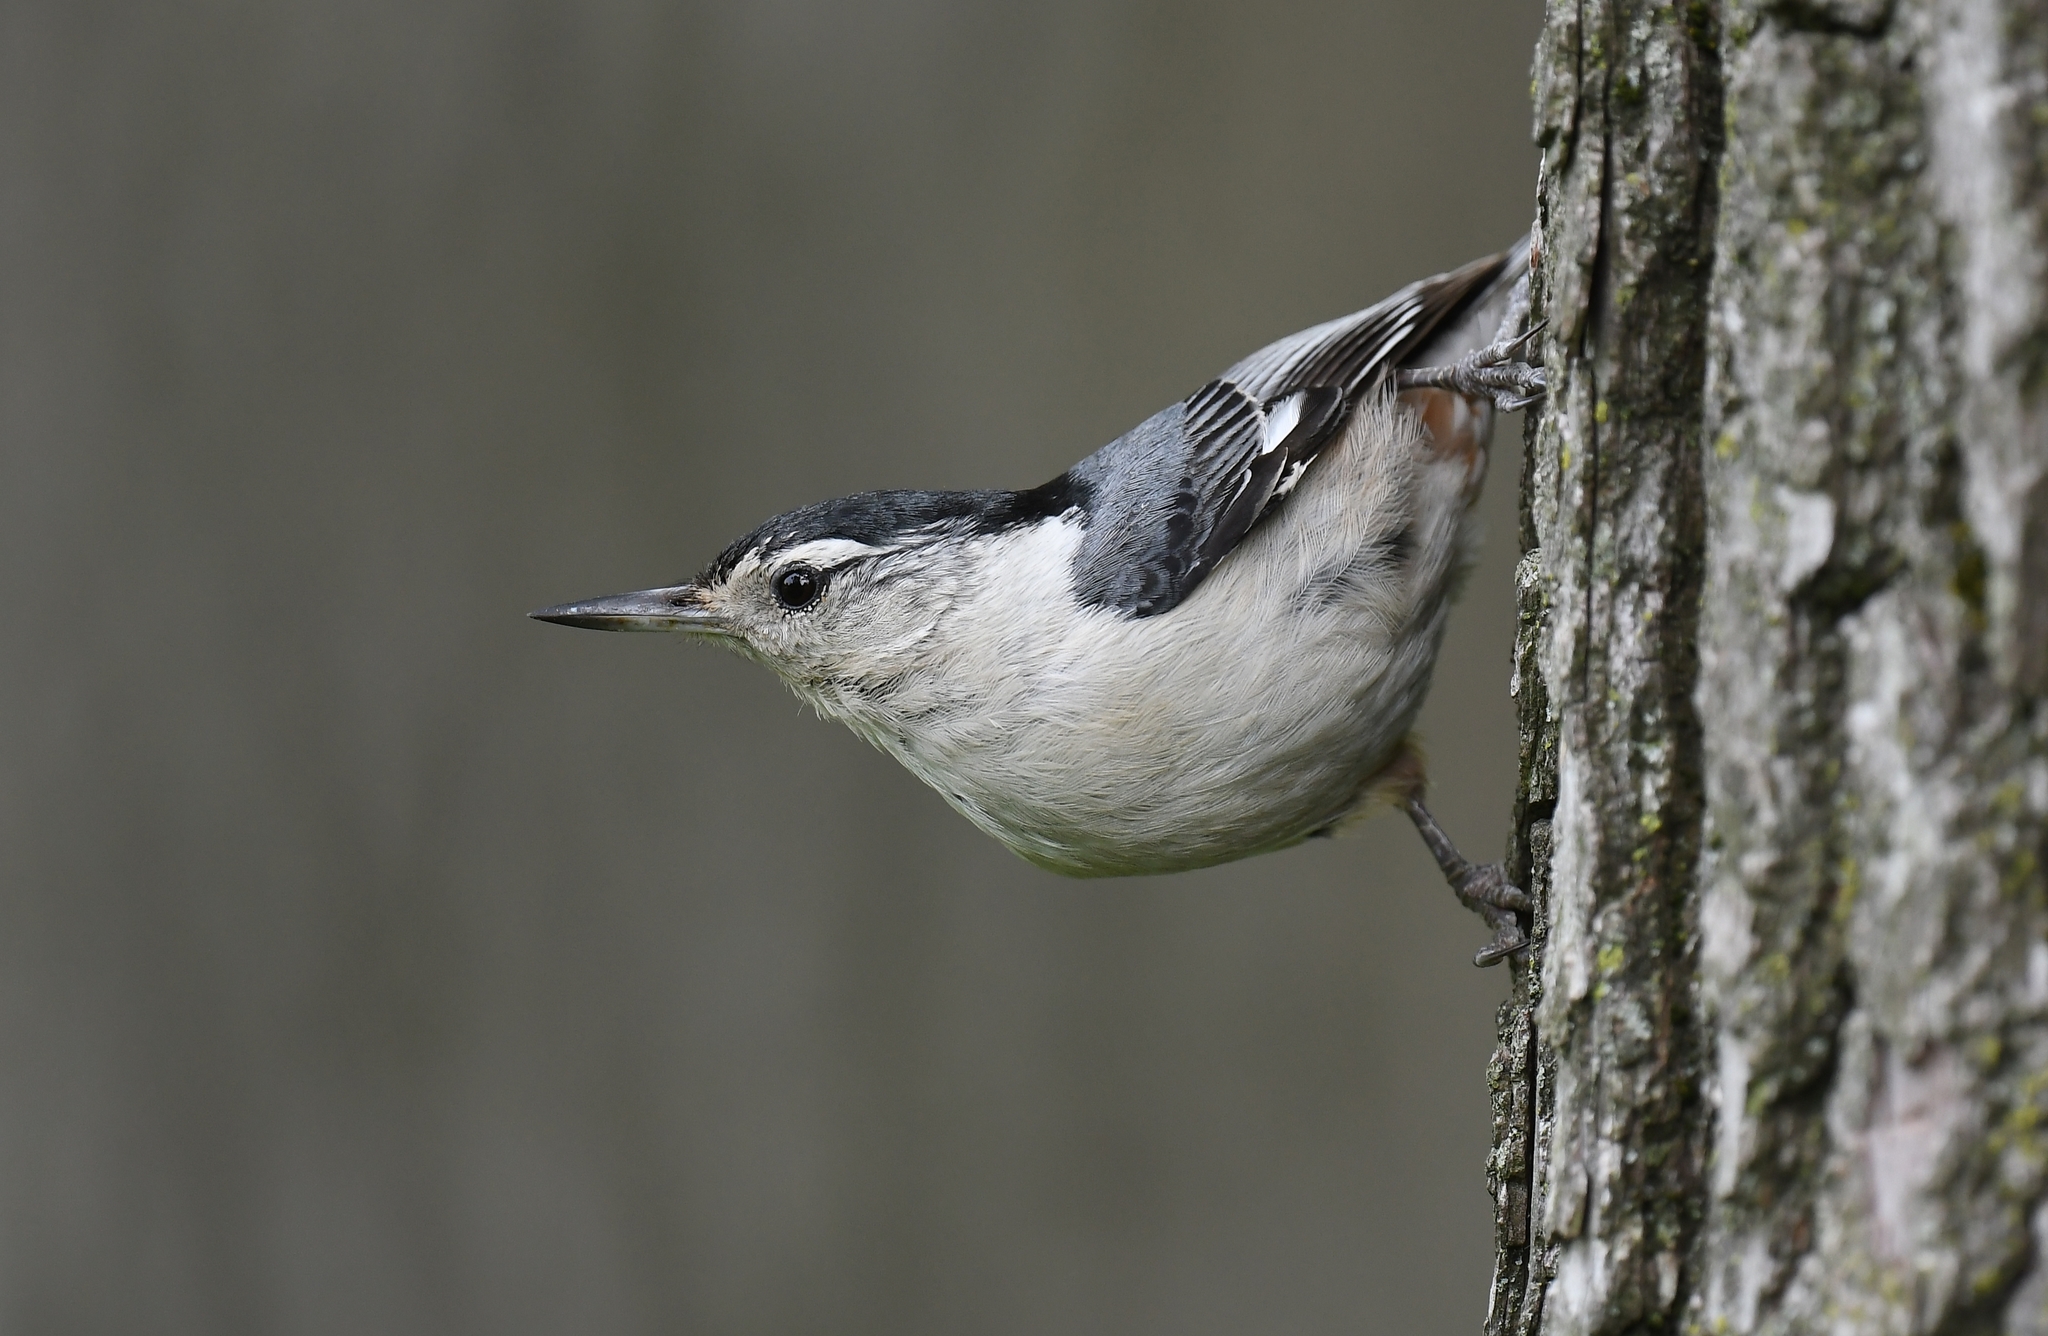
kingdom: Animalia
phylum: Chordata
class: Aves
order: Passeriformes
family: Sittidae
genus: Sitta
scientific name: Sitta carolinensis
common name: White-breasted nuthatch
